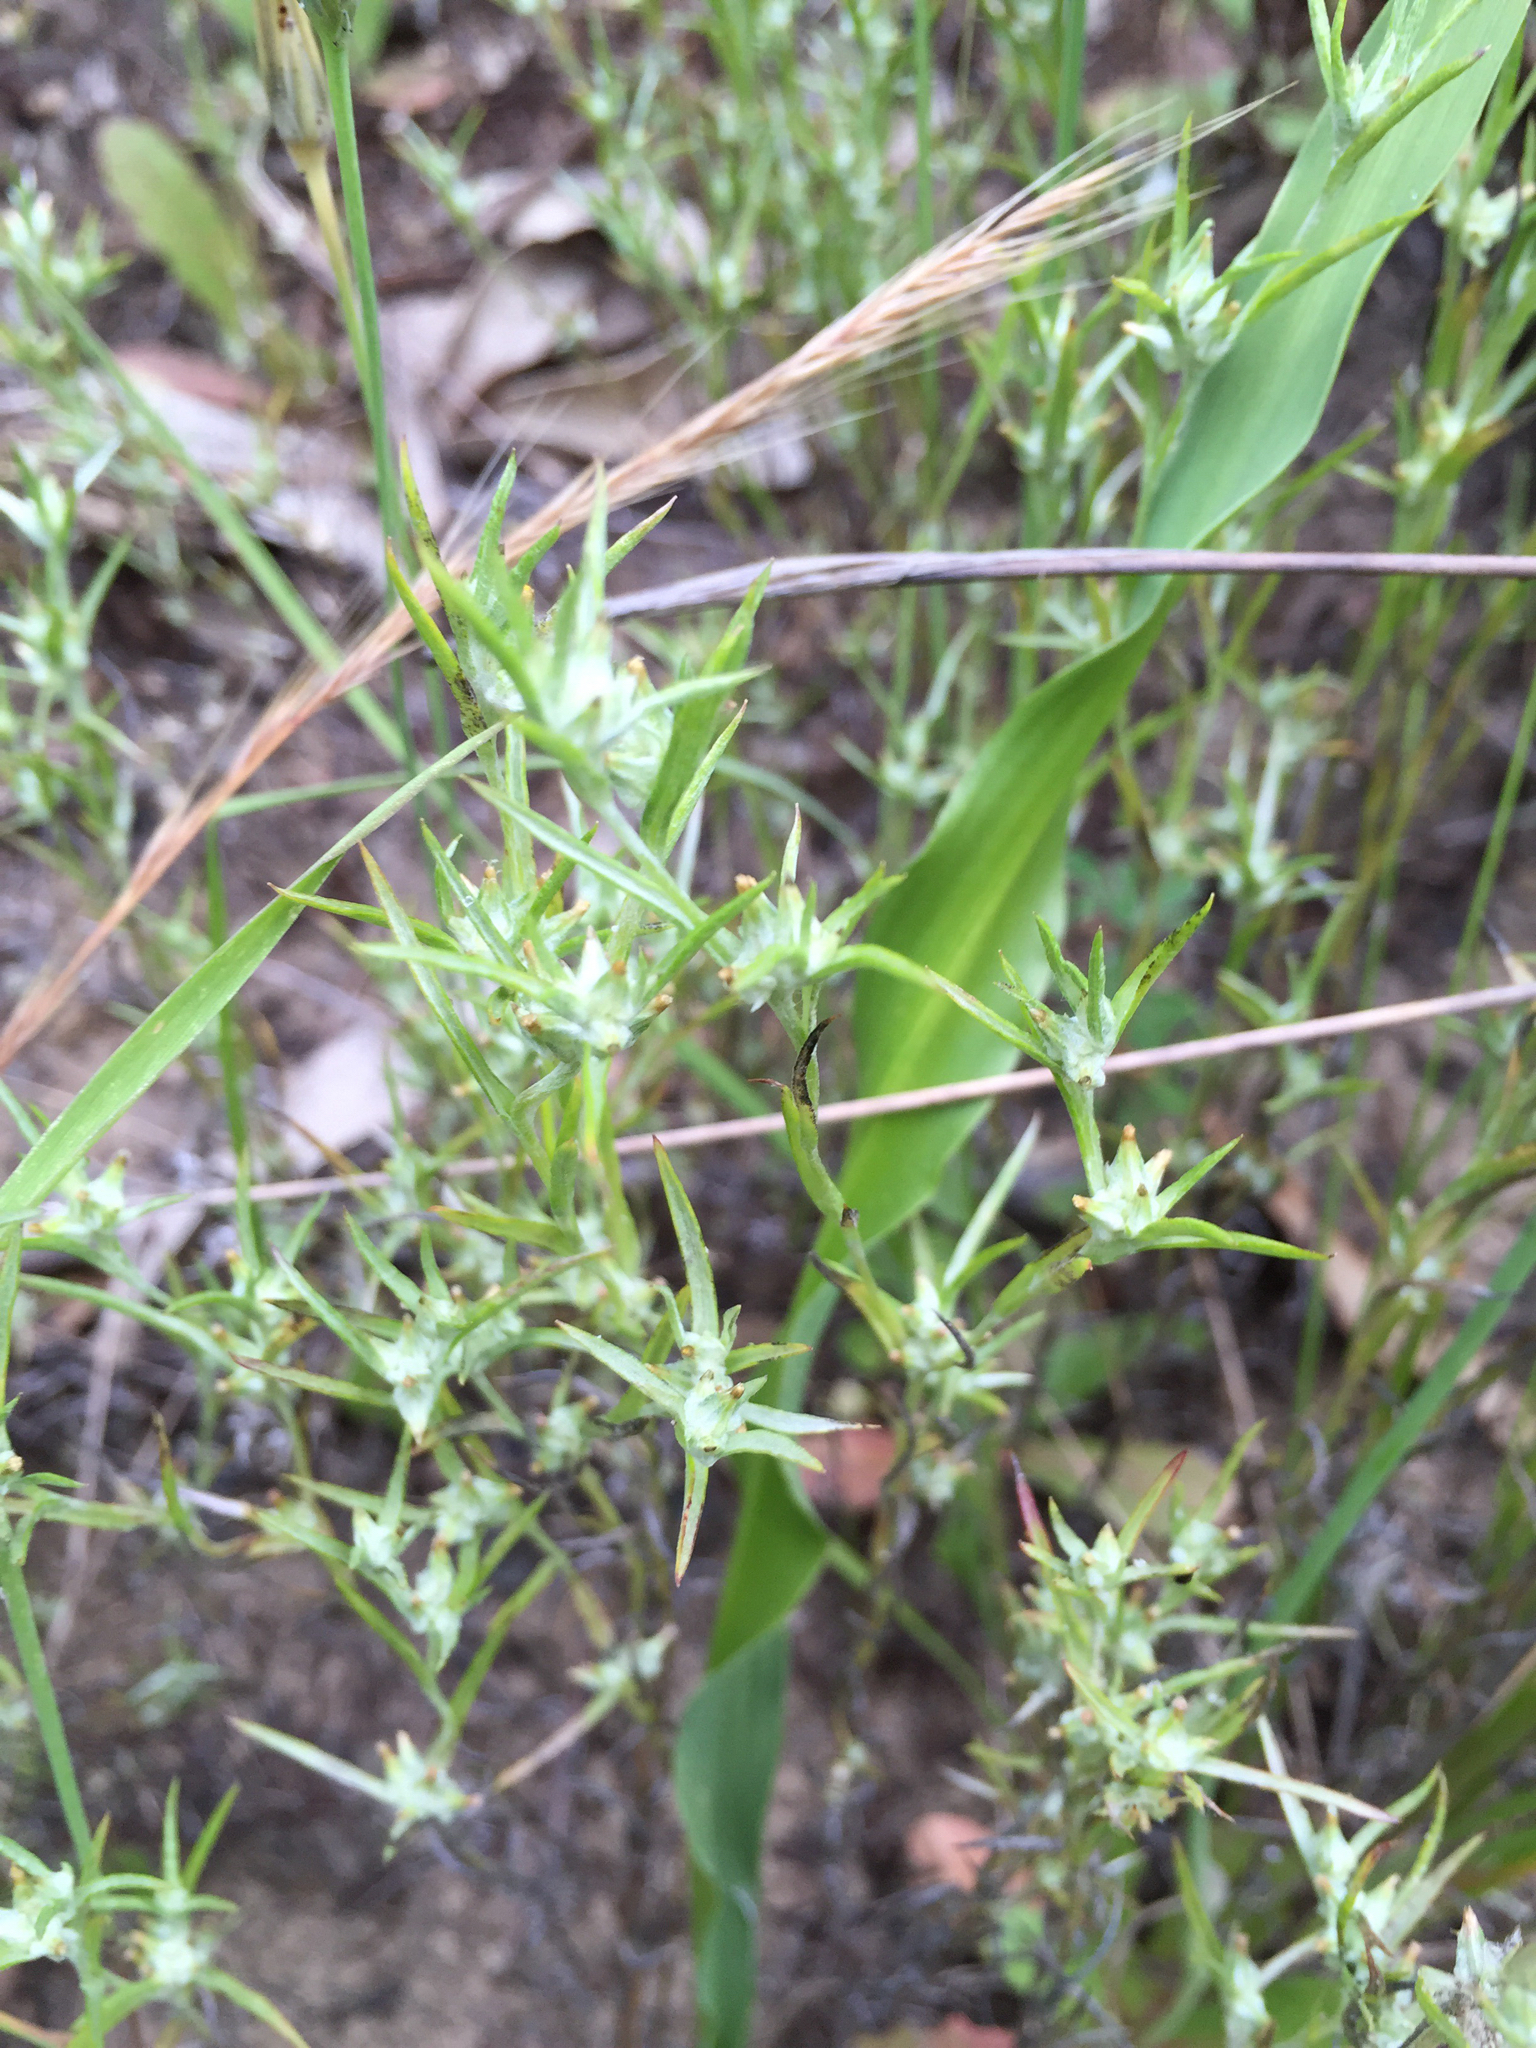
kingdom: Plantae
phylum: Tracheophyta
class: Magnoliopsida
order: Asterales
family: Asteraceae
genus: Logfia
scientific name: Logfia gallica
